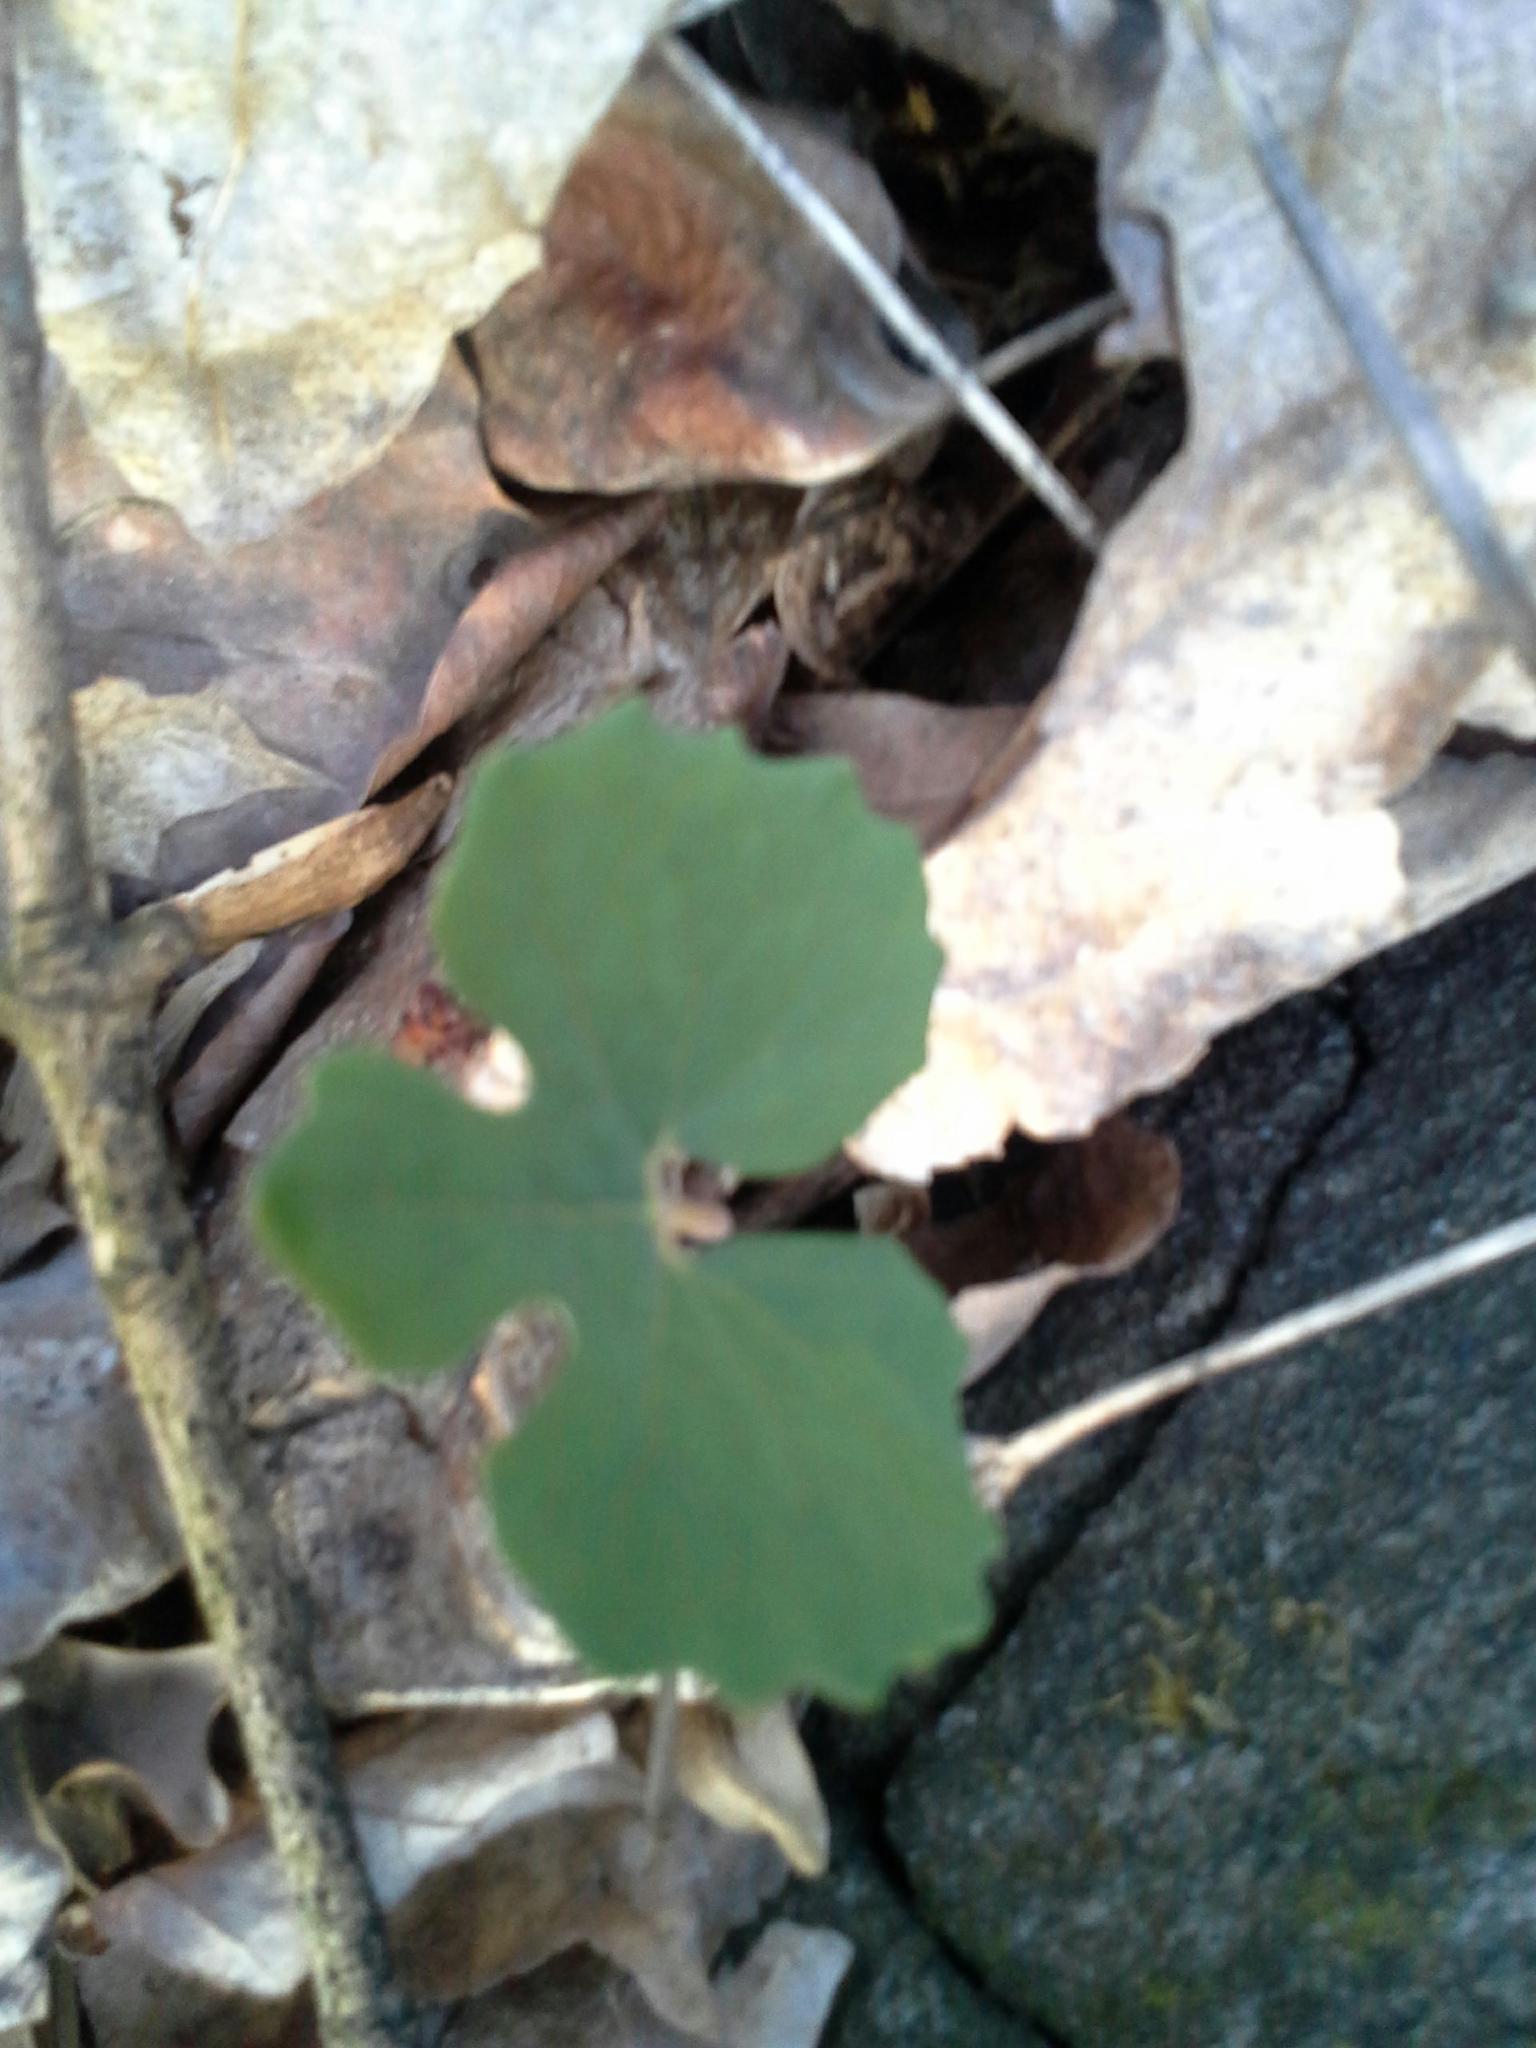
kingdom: Plantae
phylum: Tracheophyta
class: Magnoliopsida
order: Ranunculales
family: Papaveraceae
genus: Sanguinaria
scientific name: Sanguinaria canadensis
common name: Bloodroot
